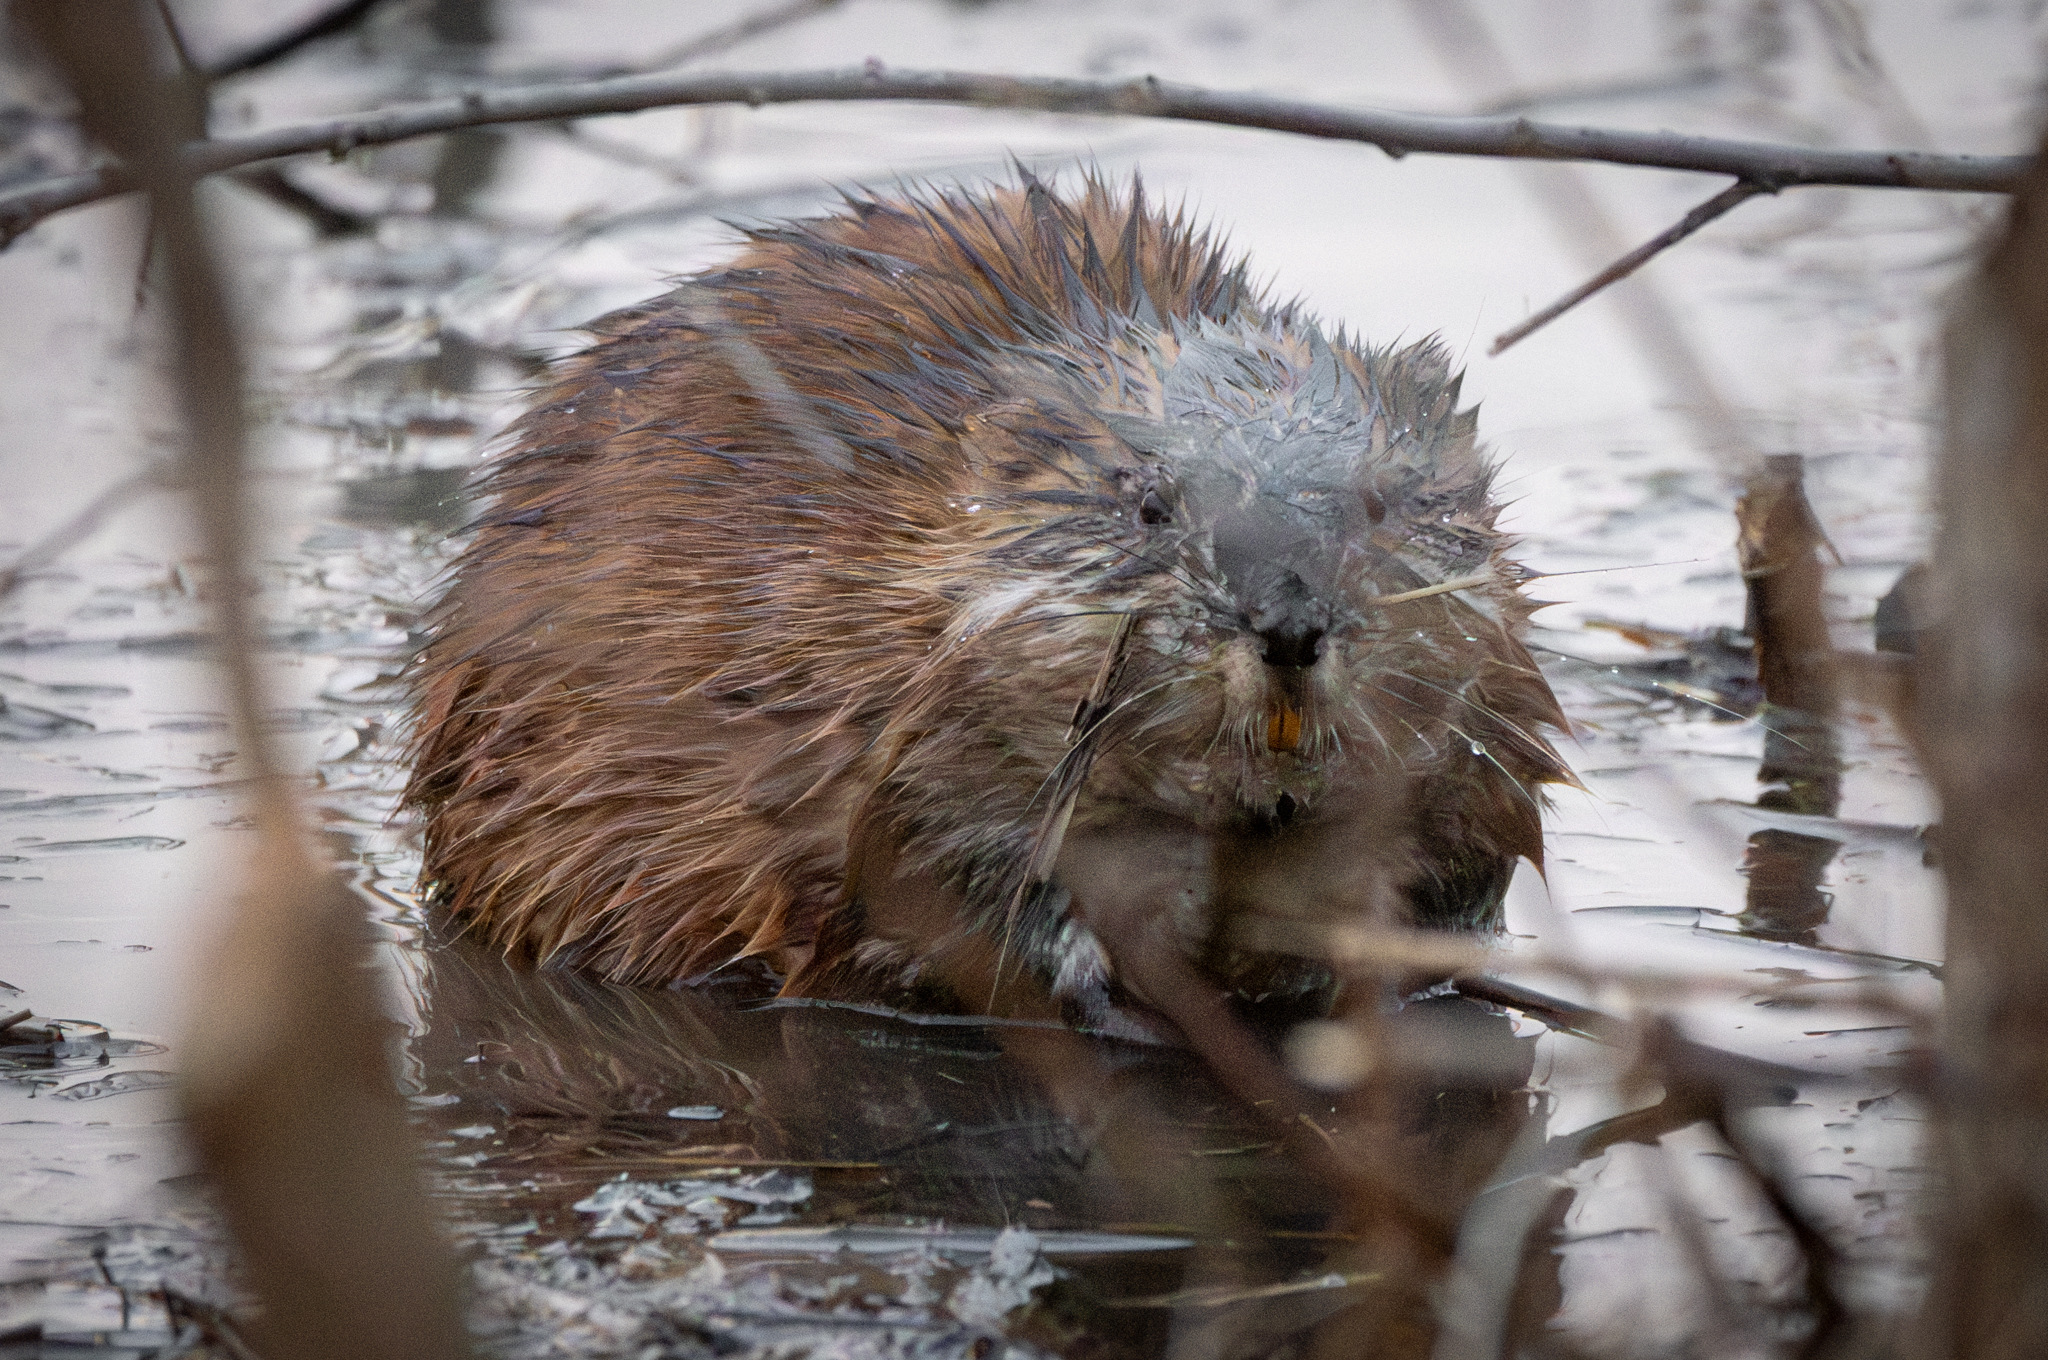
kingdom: Animalia
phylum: Chordata
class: Mammalia
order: Rodentia
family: Cricetidae
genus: Ondatra
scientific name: Ondatra zibethicus
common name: Muskrat
